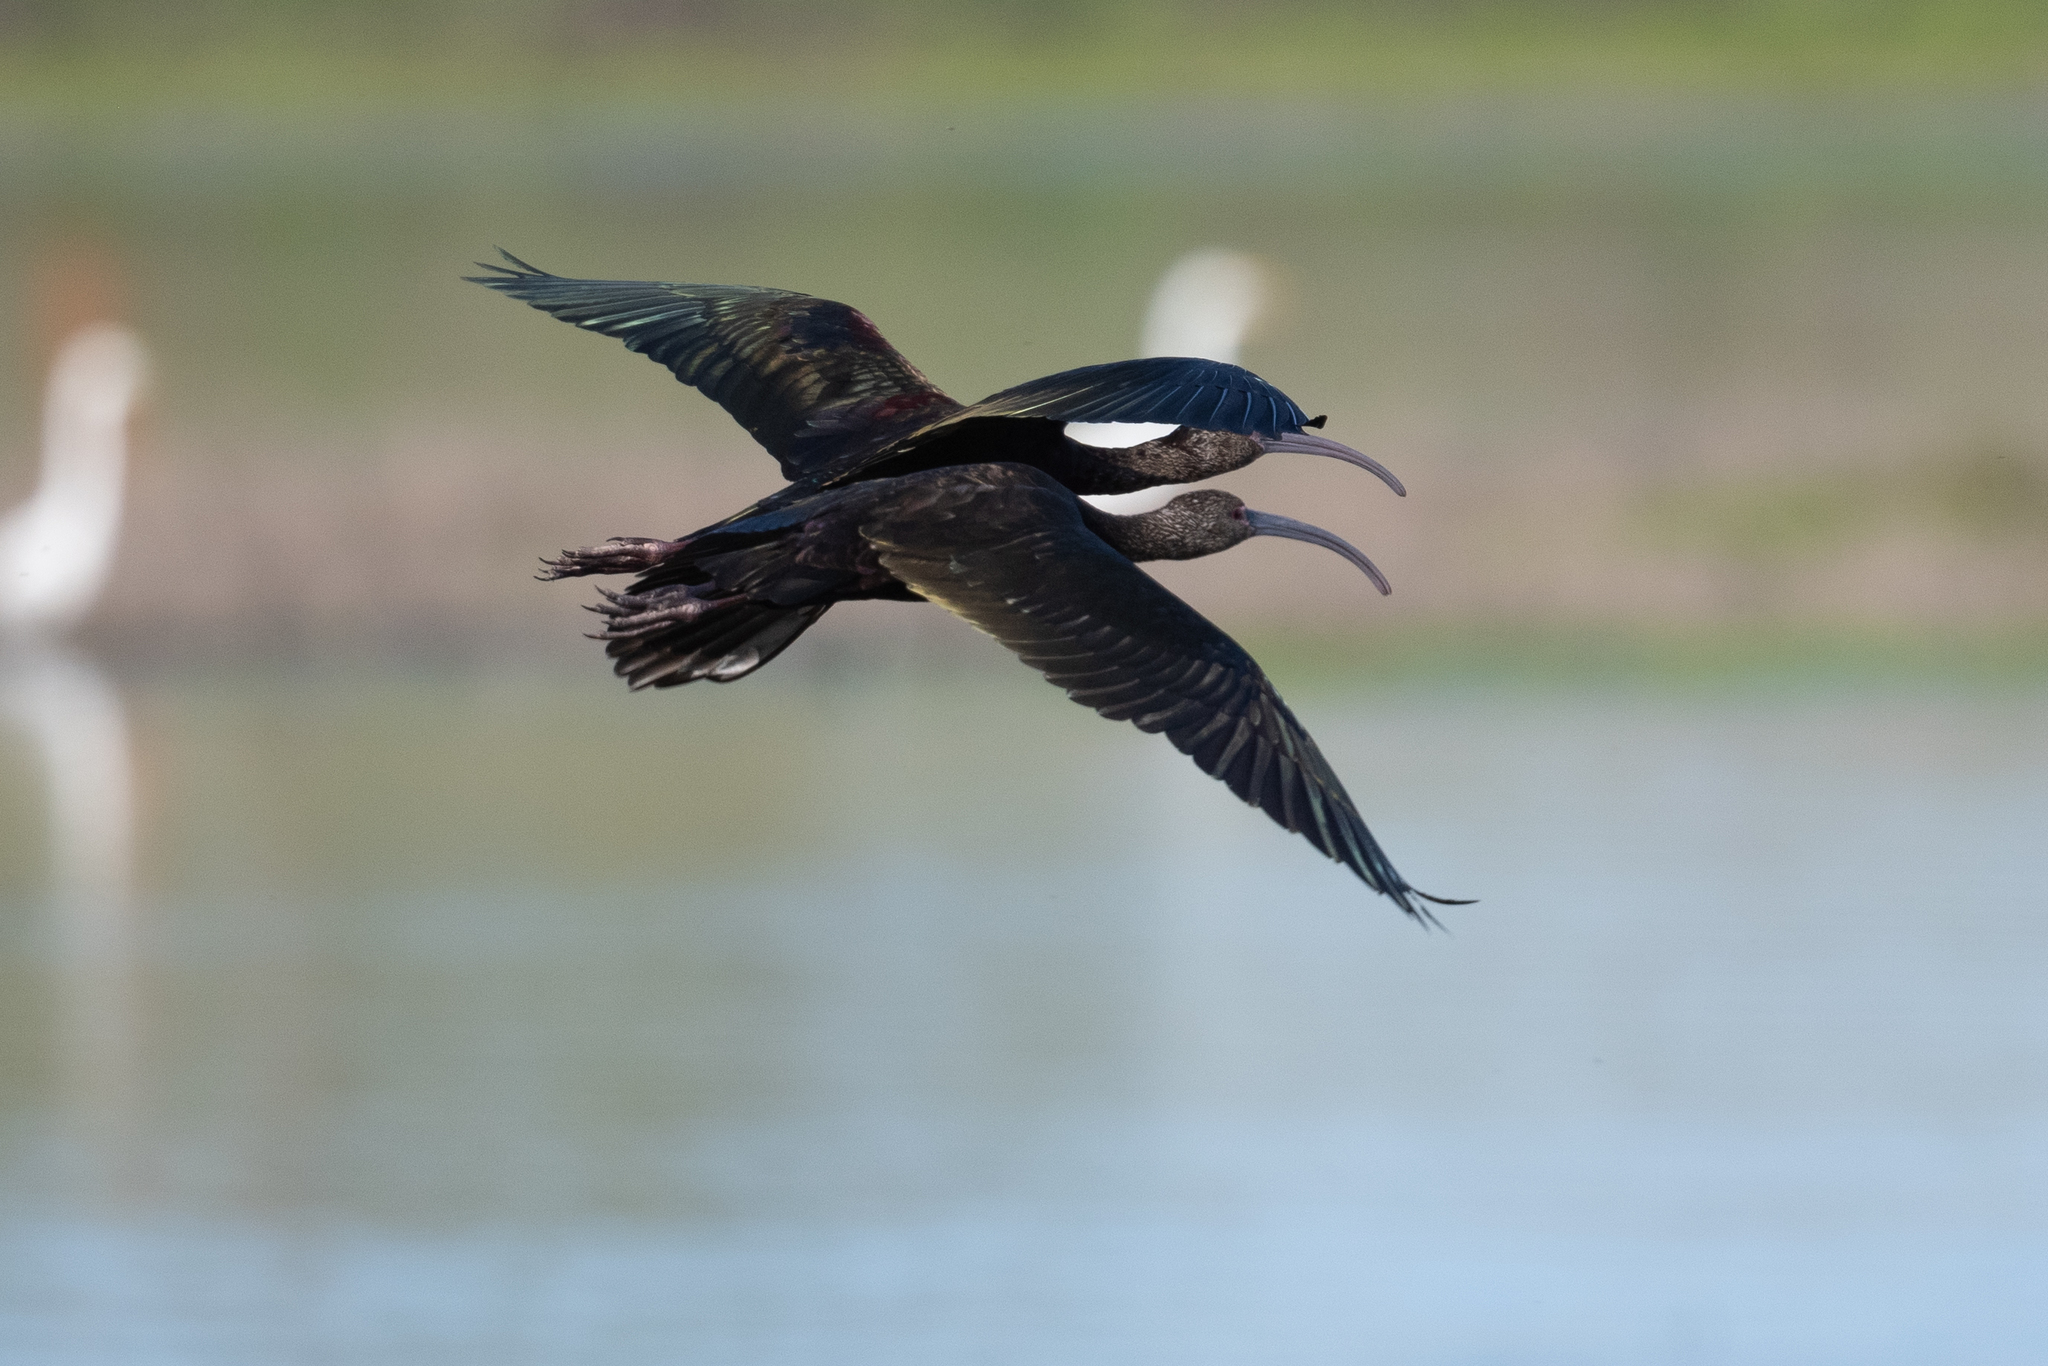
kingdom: Animalia
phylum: Chordata
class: Aves
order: Pelecaniformes
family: Threskiornithidae
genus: Plegadis
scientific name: Plegadis chihi
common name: White-faced ibis
